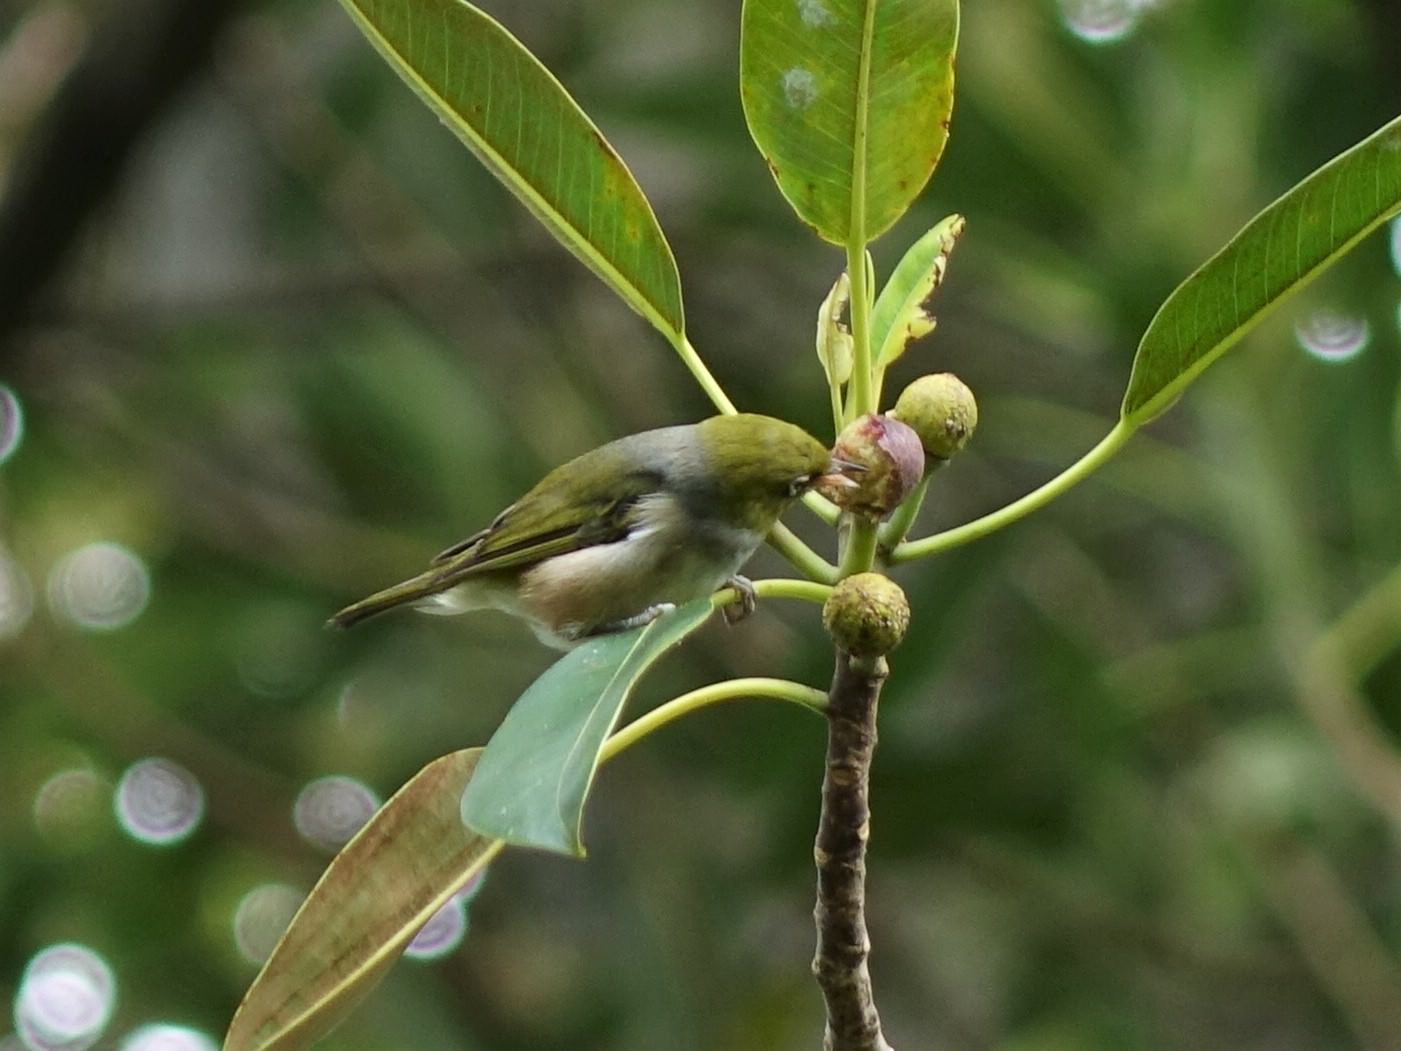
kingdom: Animalia
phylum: Chordata
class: Aves
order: Passeriformes
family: Zosteropidae
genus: Zosterops
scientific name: Zosterops lateralis
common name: Silvereye
